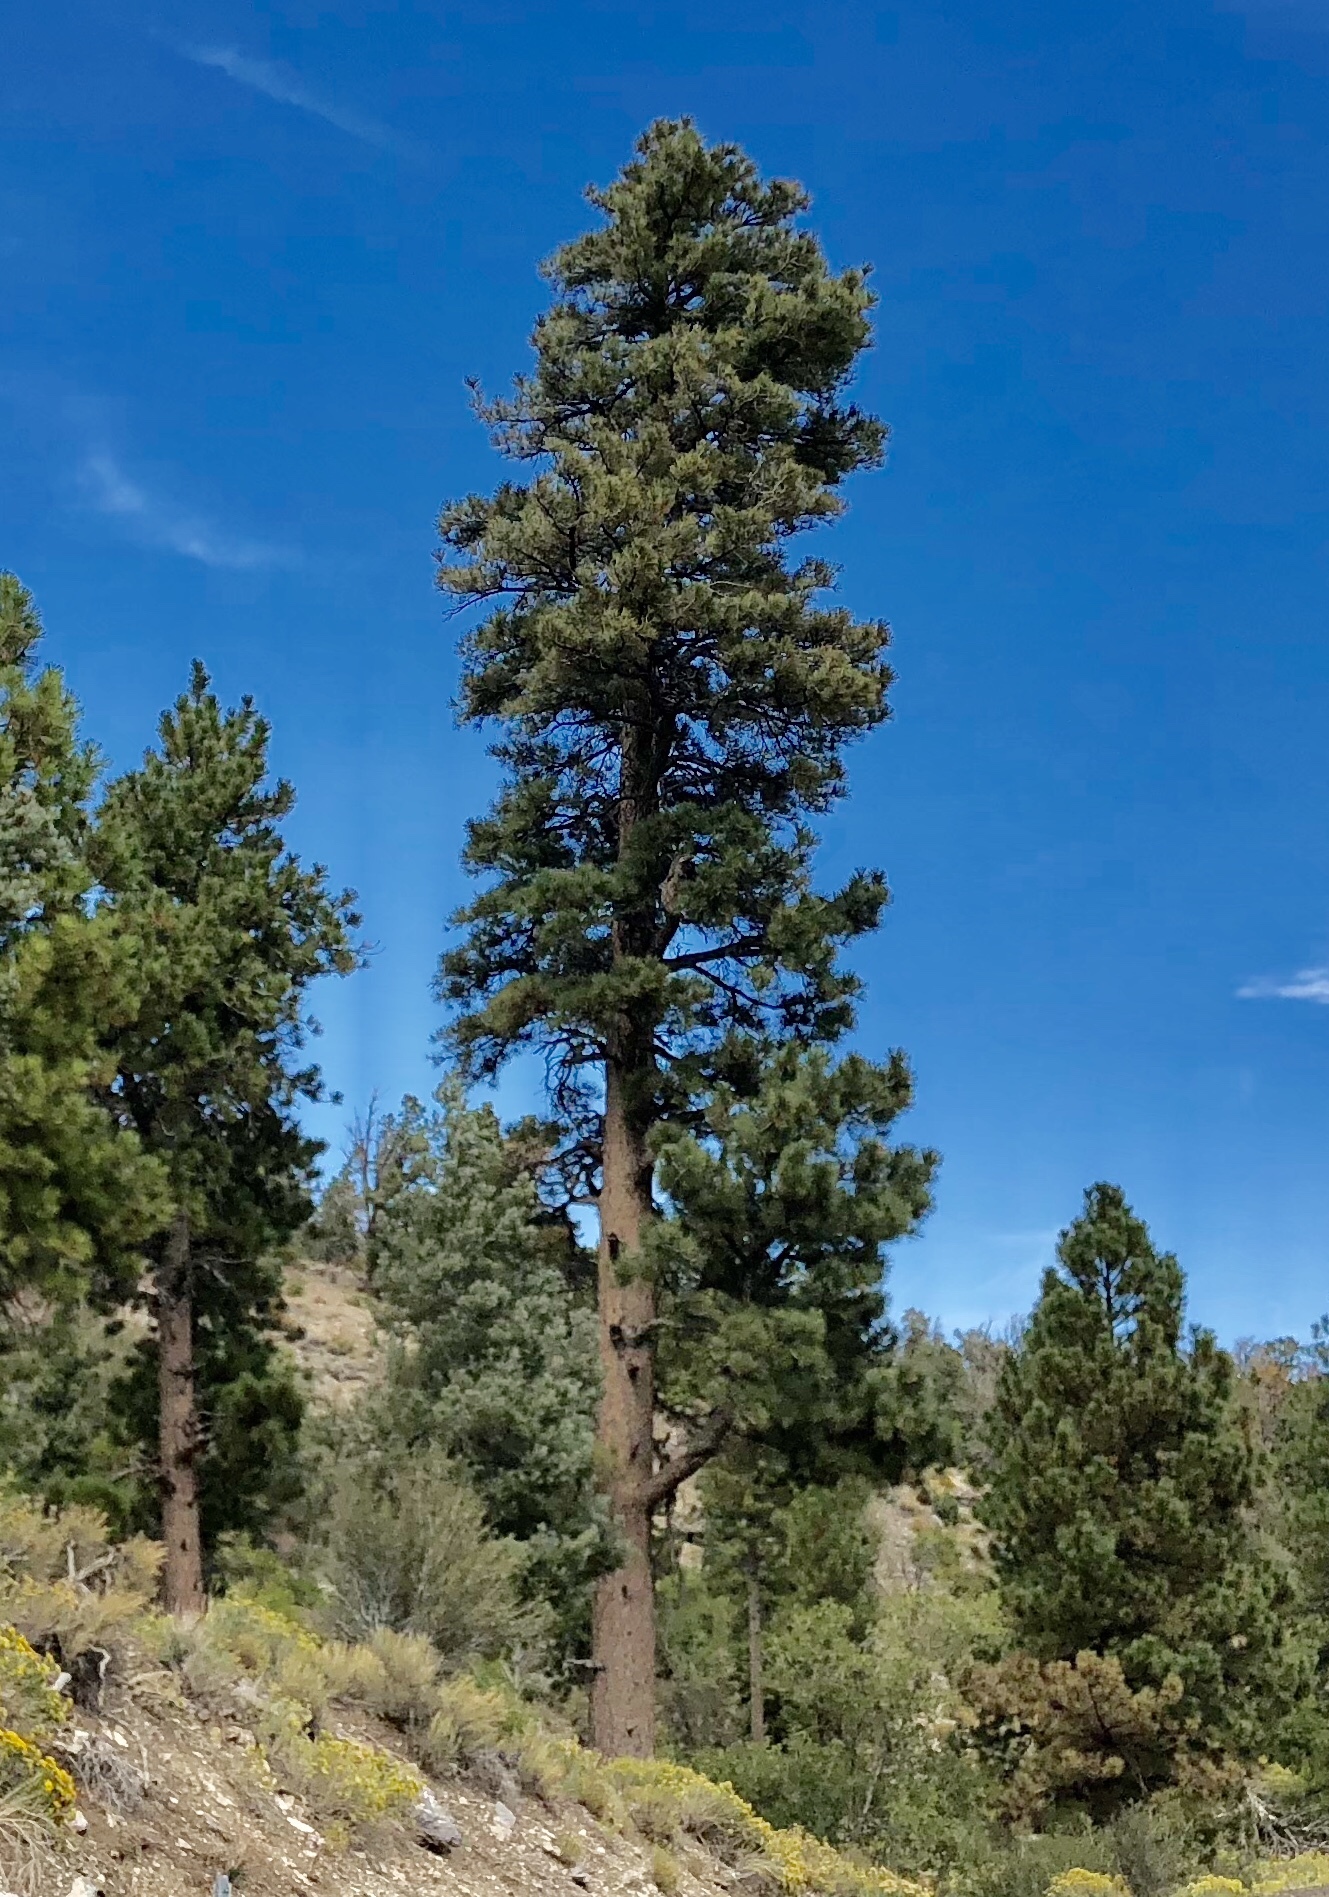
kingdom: Plantae
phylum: Tracheophyta
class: Pinopsida
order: Pinales
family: Pinaceae
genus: Pinus
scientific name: Pinus ponderosa
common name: Western yellow-pine
